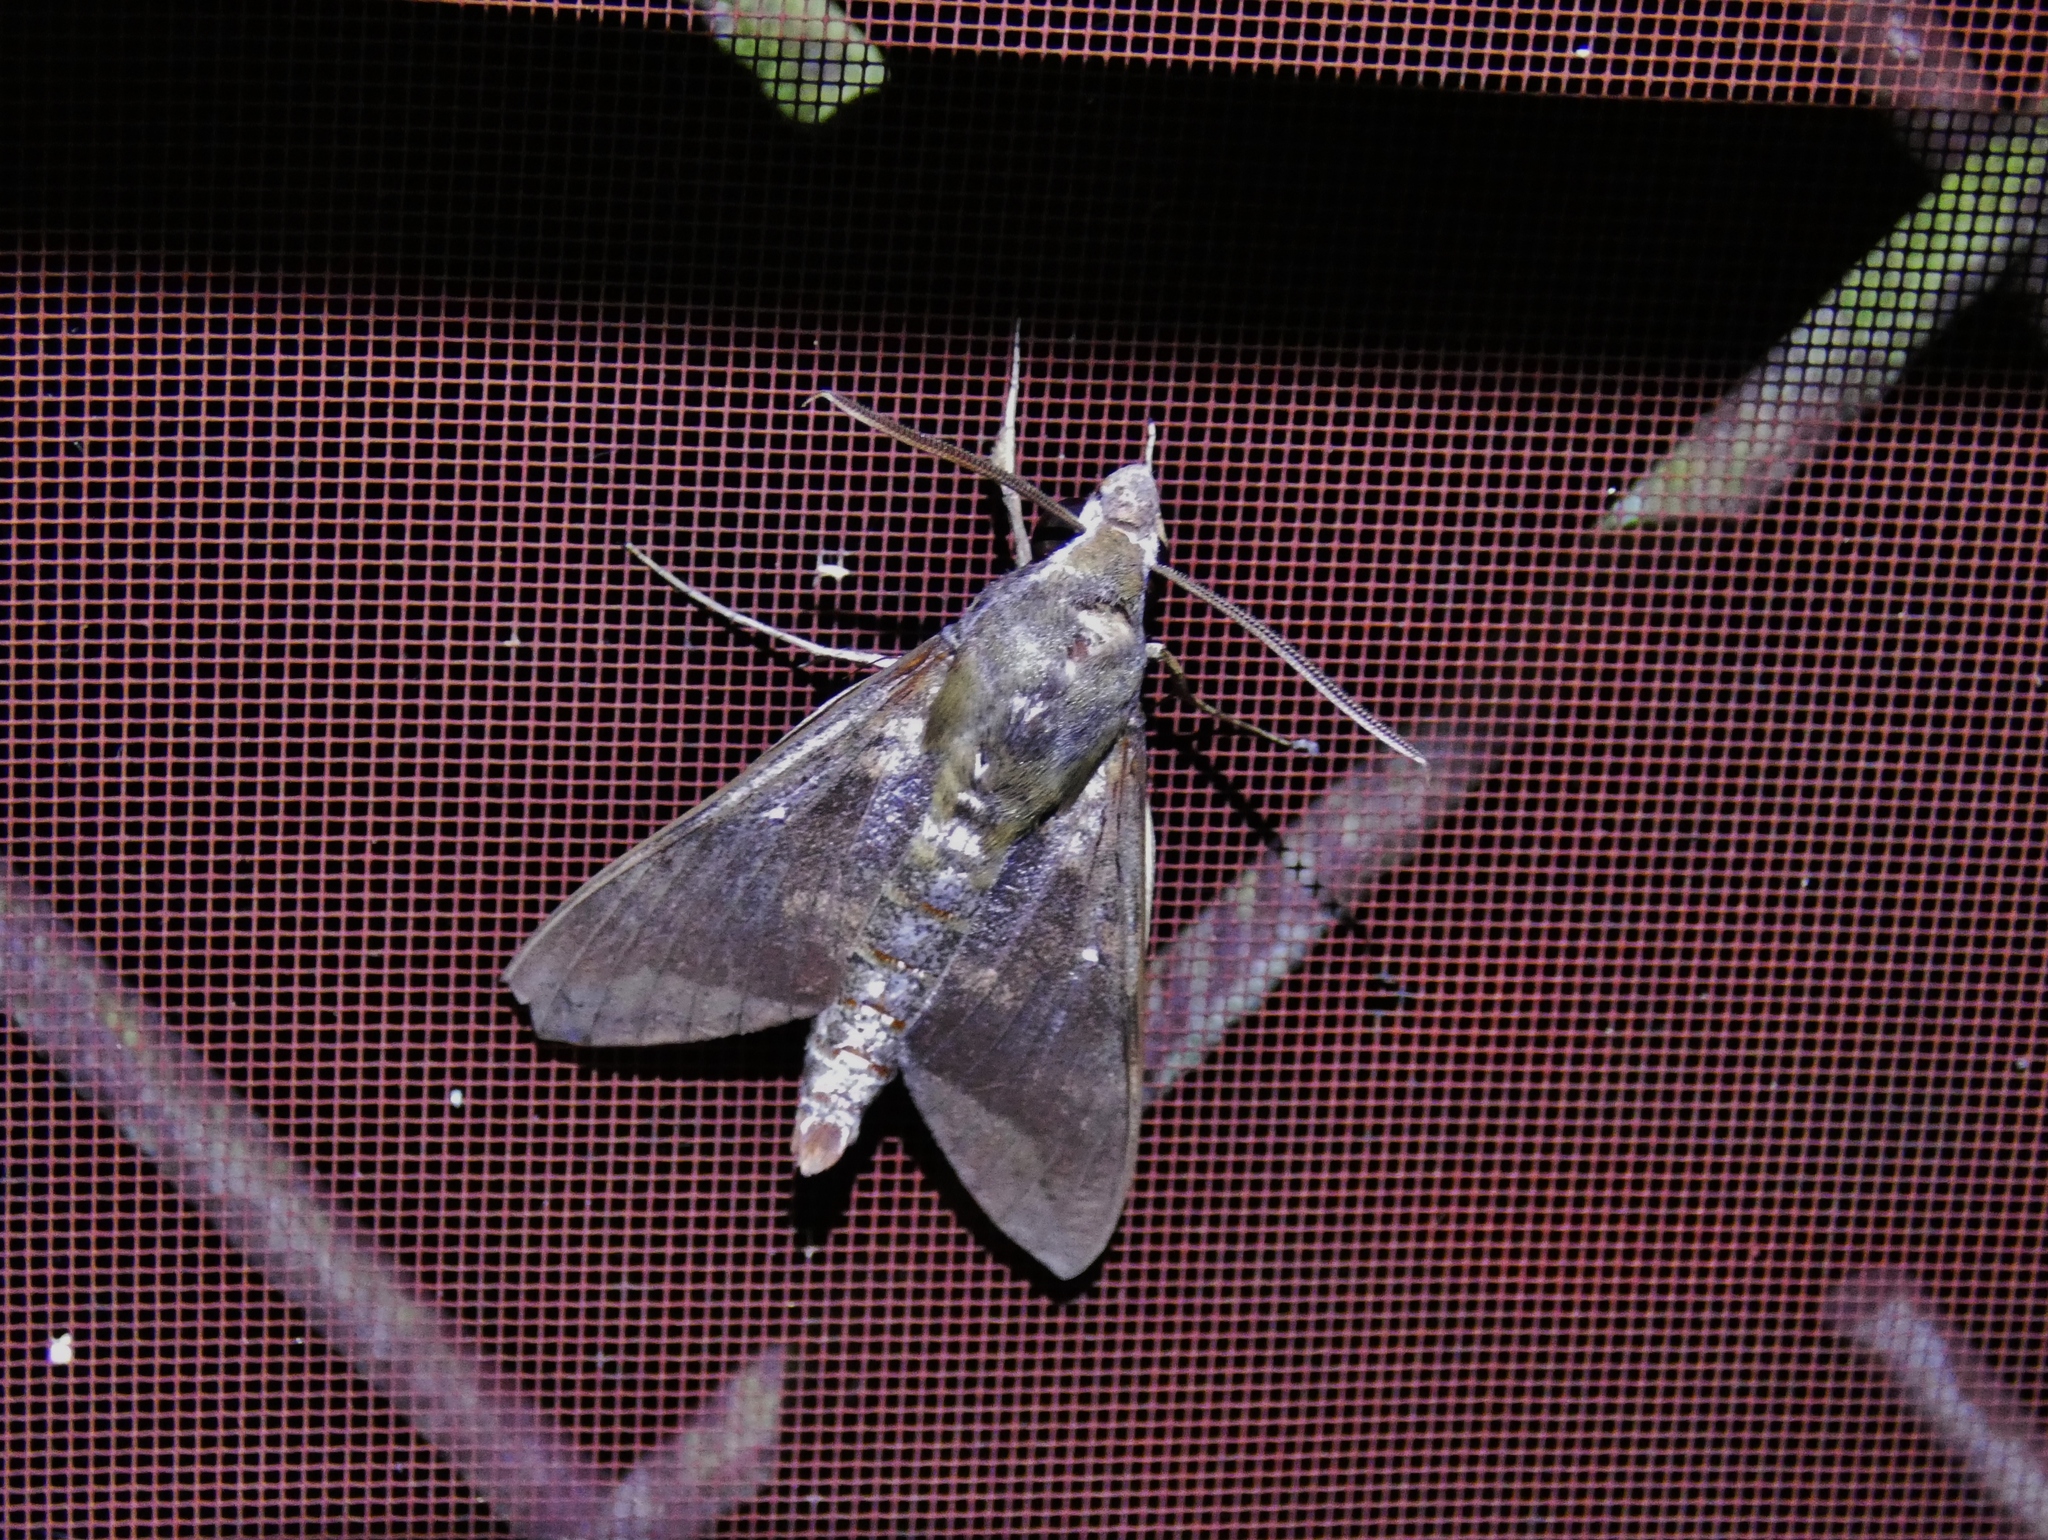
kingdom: Animalia
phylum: Arthropoda
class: Insecta
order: Lepidoptera
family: Sphingidae
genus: Nephele
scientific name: Nephele comma
